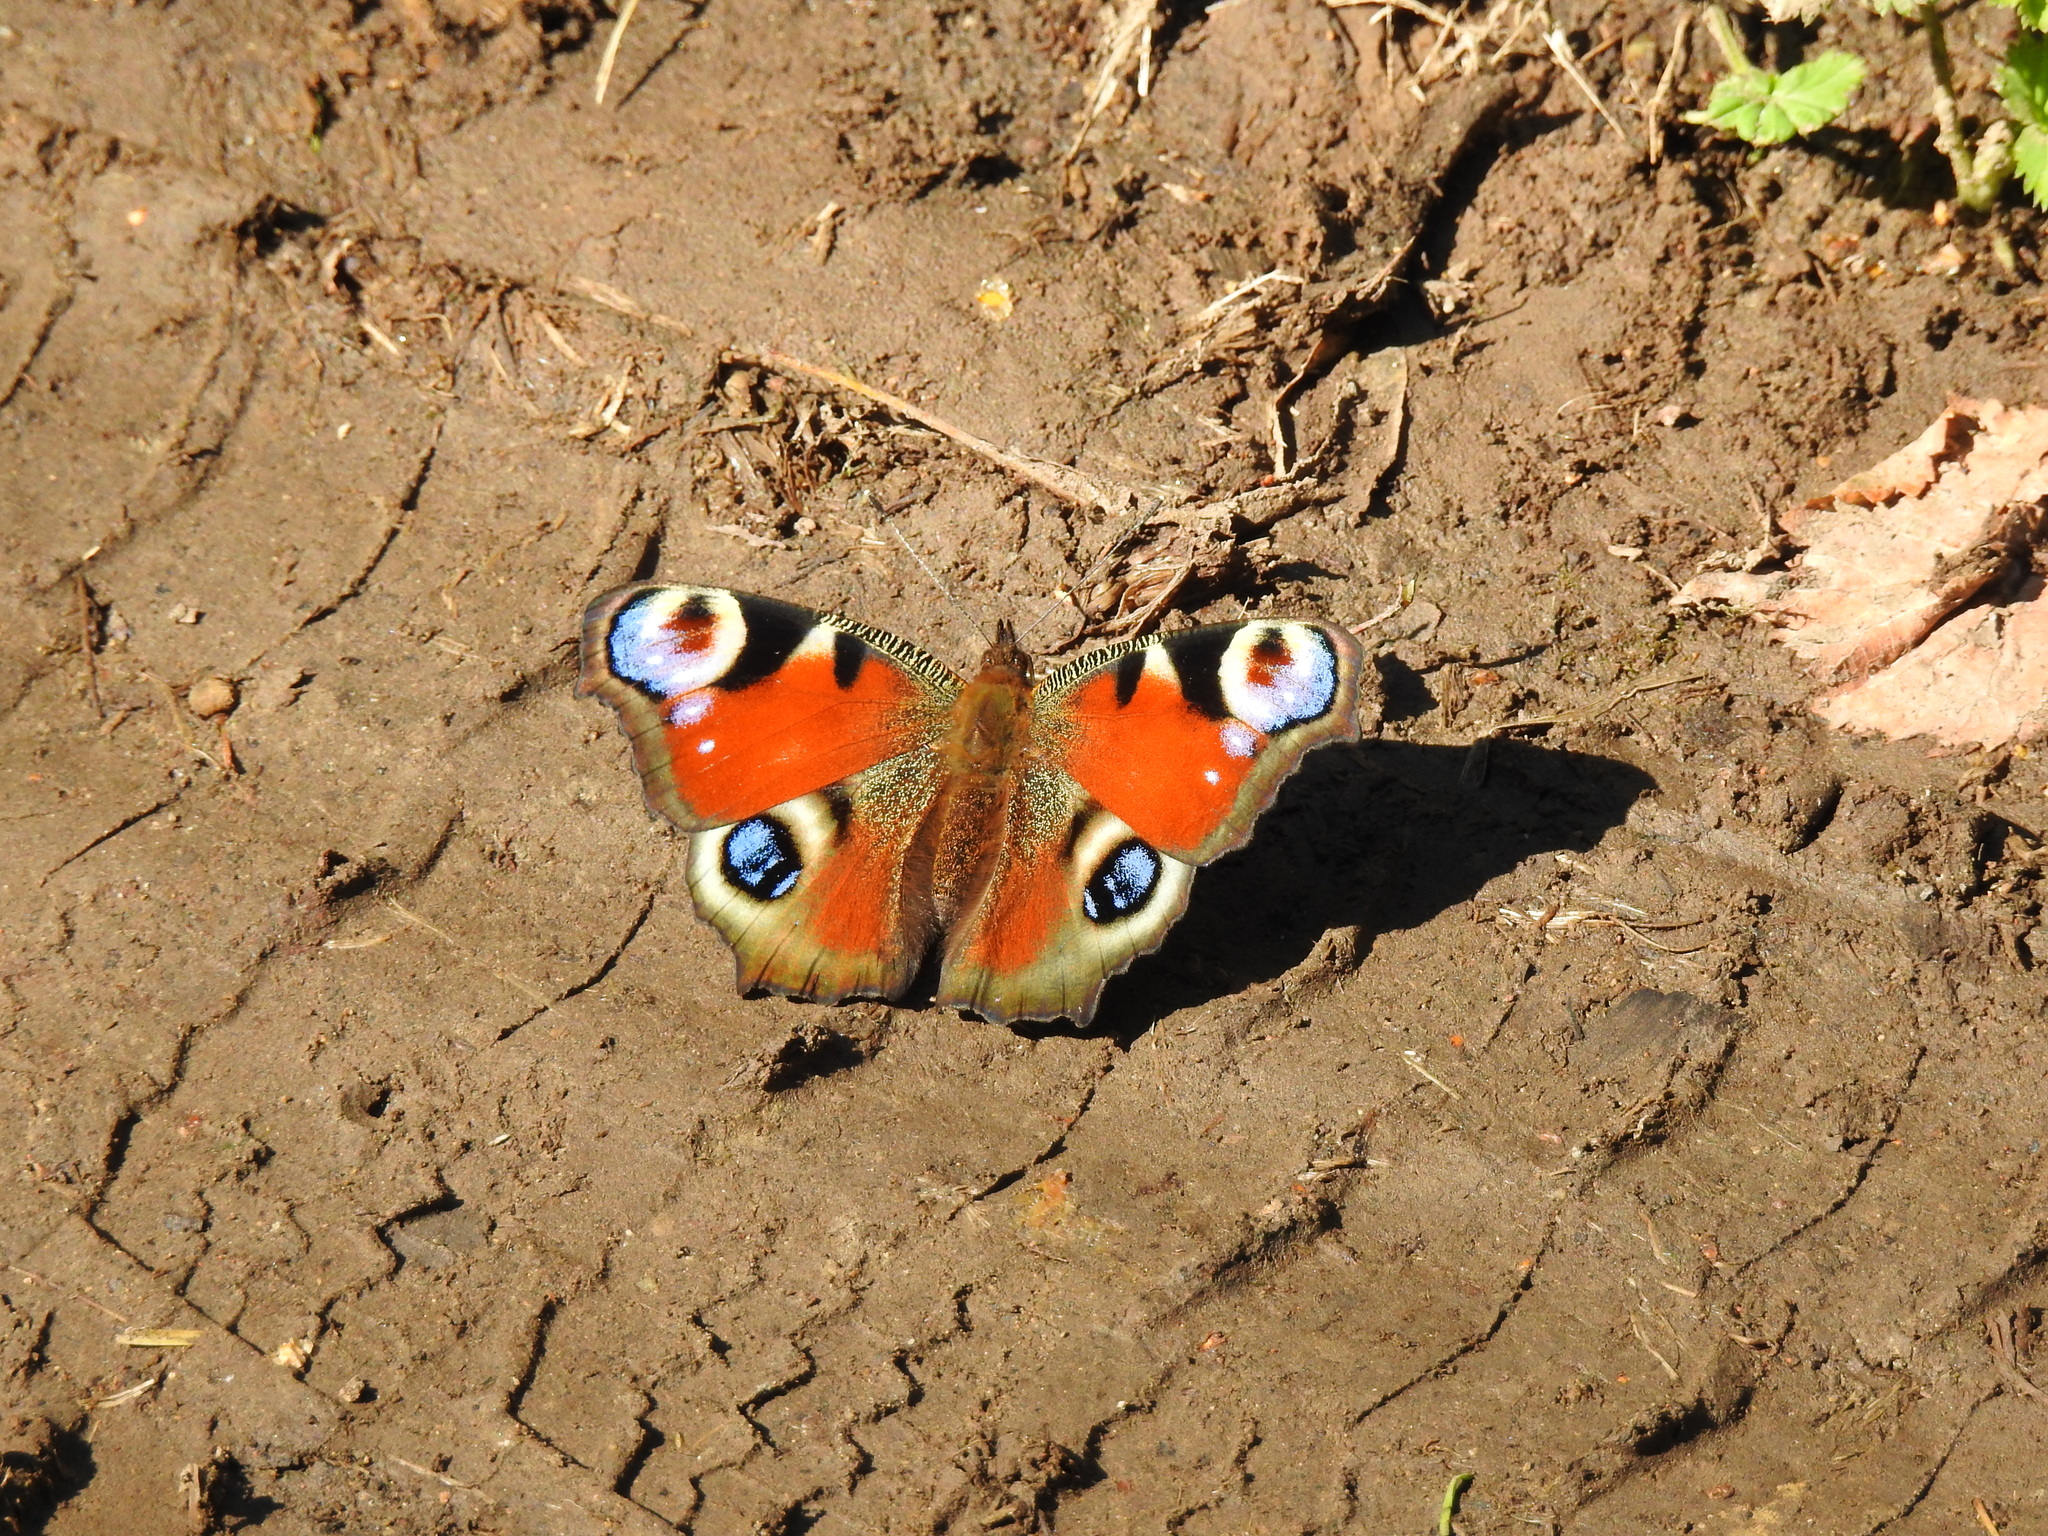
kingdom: Animalia
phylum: Arthropoda
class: Insecta
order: Lepidoptera
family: Nymphalidae
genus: Aglais
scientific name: Aglais io
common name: Peacock
